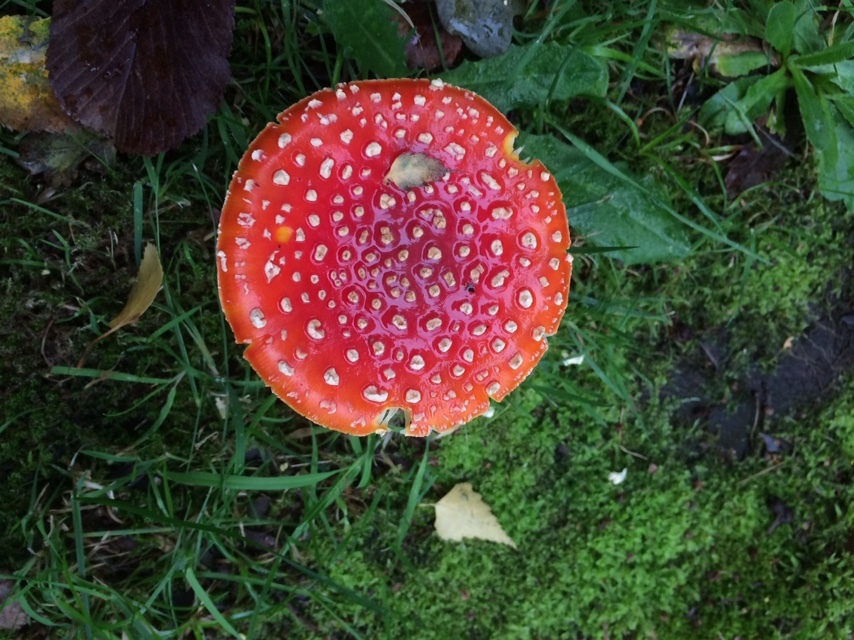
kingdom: Fungi
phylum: Basidiomycota
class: Agaricomycetes
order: Agaricales
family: Amanitaceae
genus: Amanita
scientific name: Amanita muscaria
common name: Fly agaric
